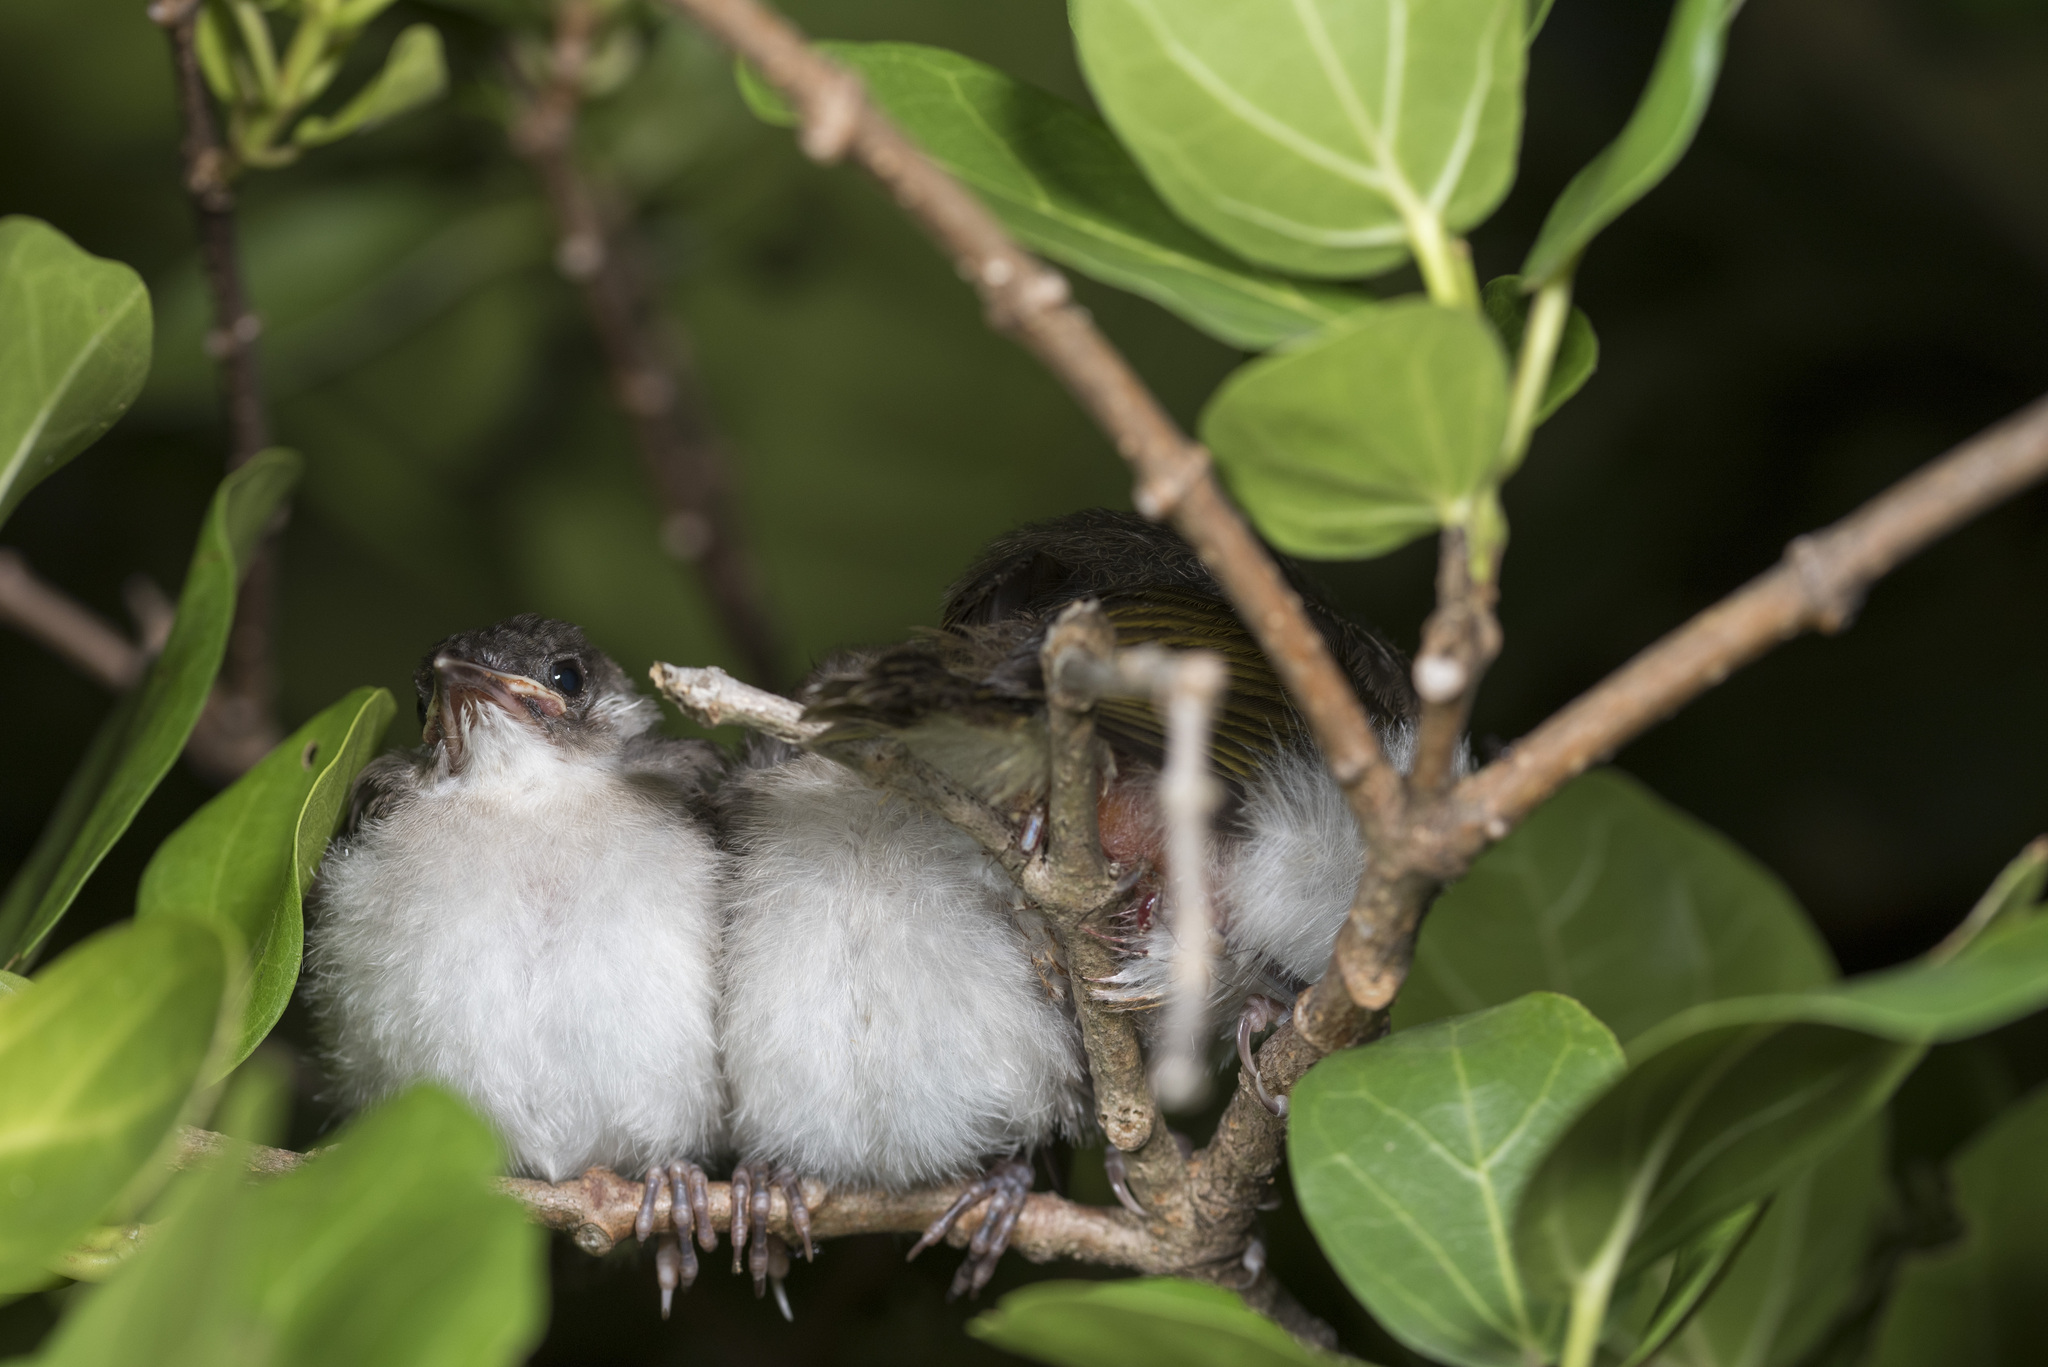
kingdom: Animalia
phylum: Chordata
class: Aves
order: Passeriformes
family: Pycnonotidae
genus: Pycnonotus
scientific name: Pycnonotus taivanus
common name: Styan's bulbul
